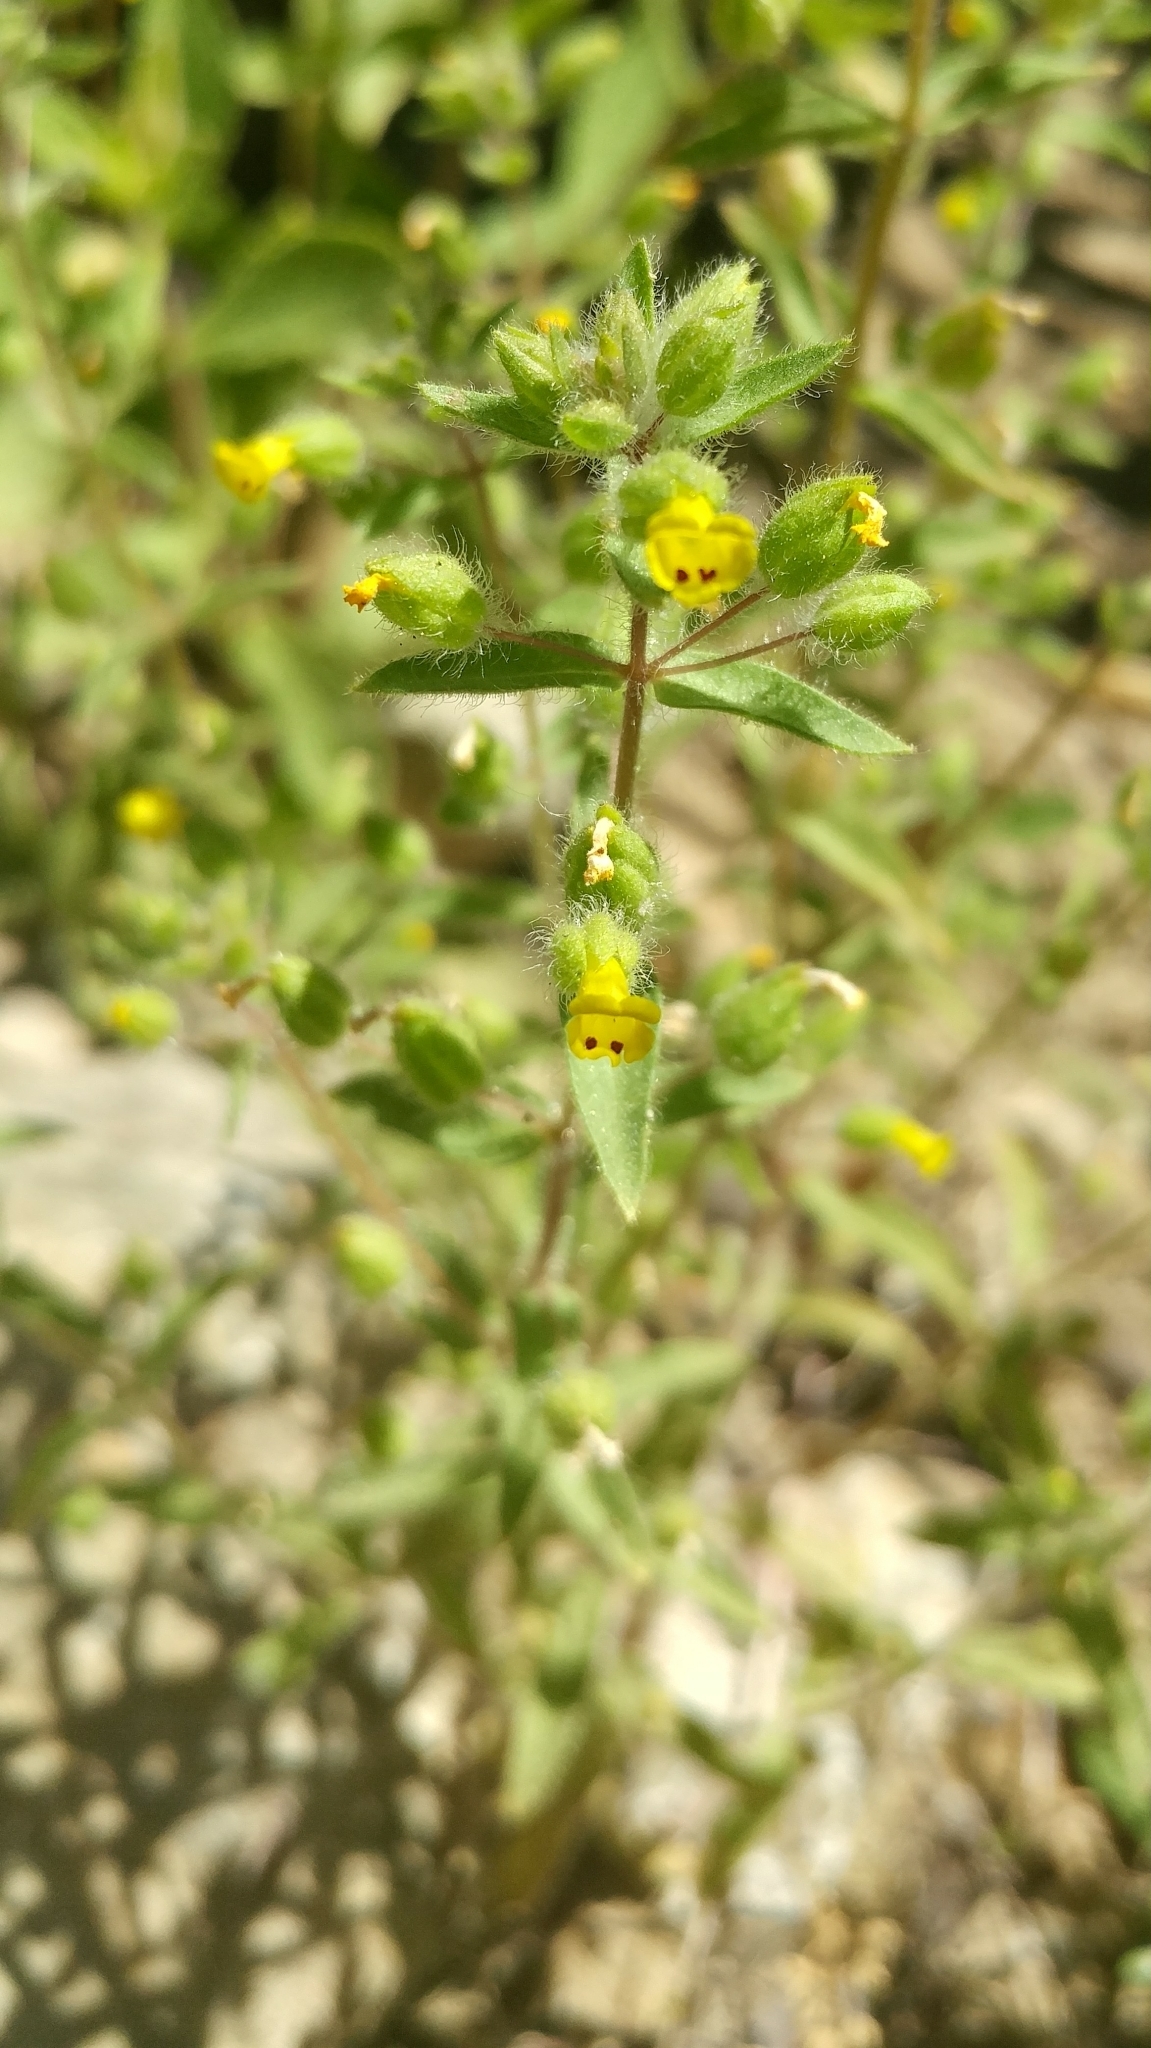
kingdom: Plantae
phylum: Tracheophyta
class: Magnoliopsida
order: Lamiales
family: Phrymaceae
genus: Mimetanthe
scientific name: Mimetanthe pilosa
